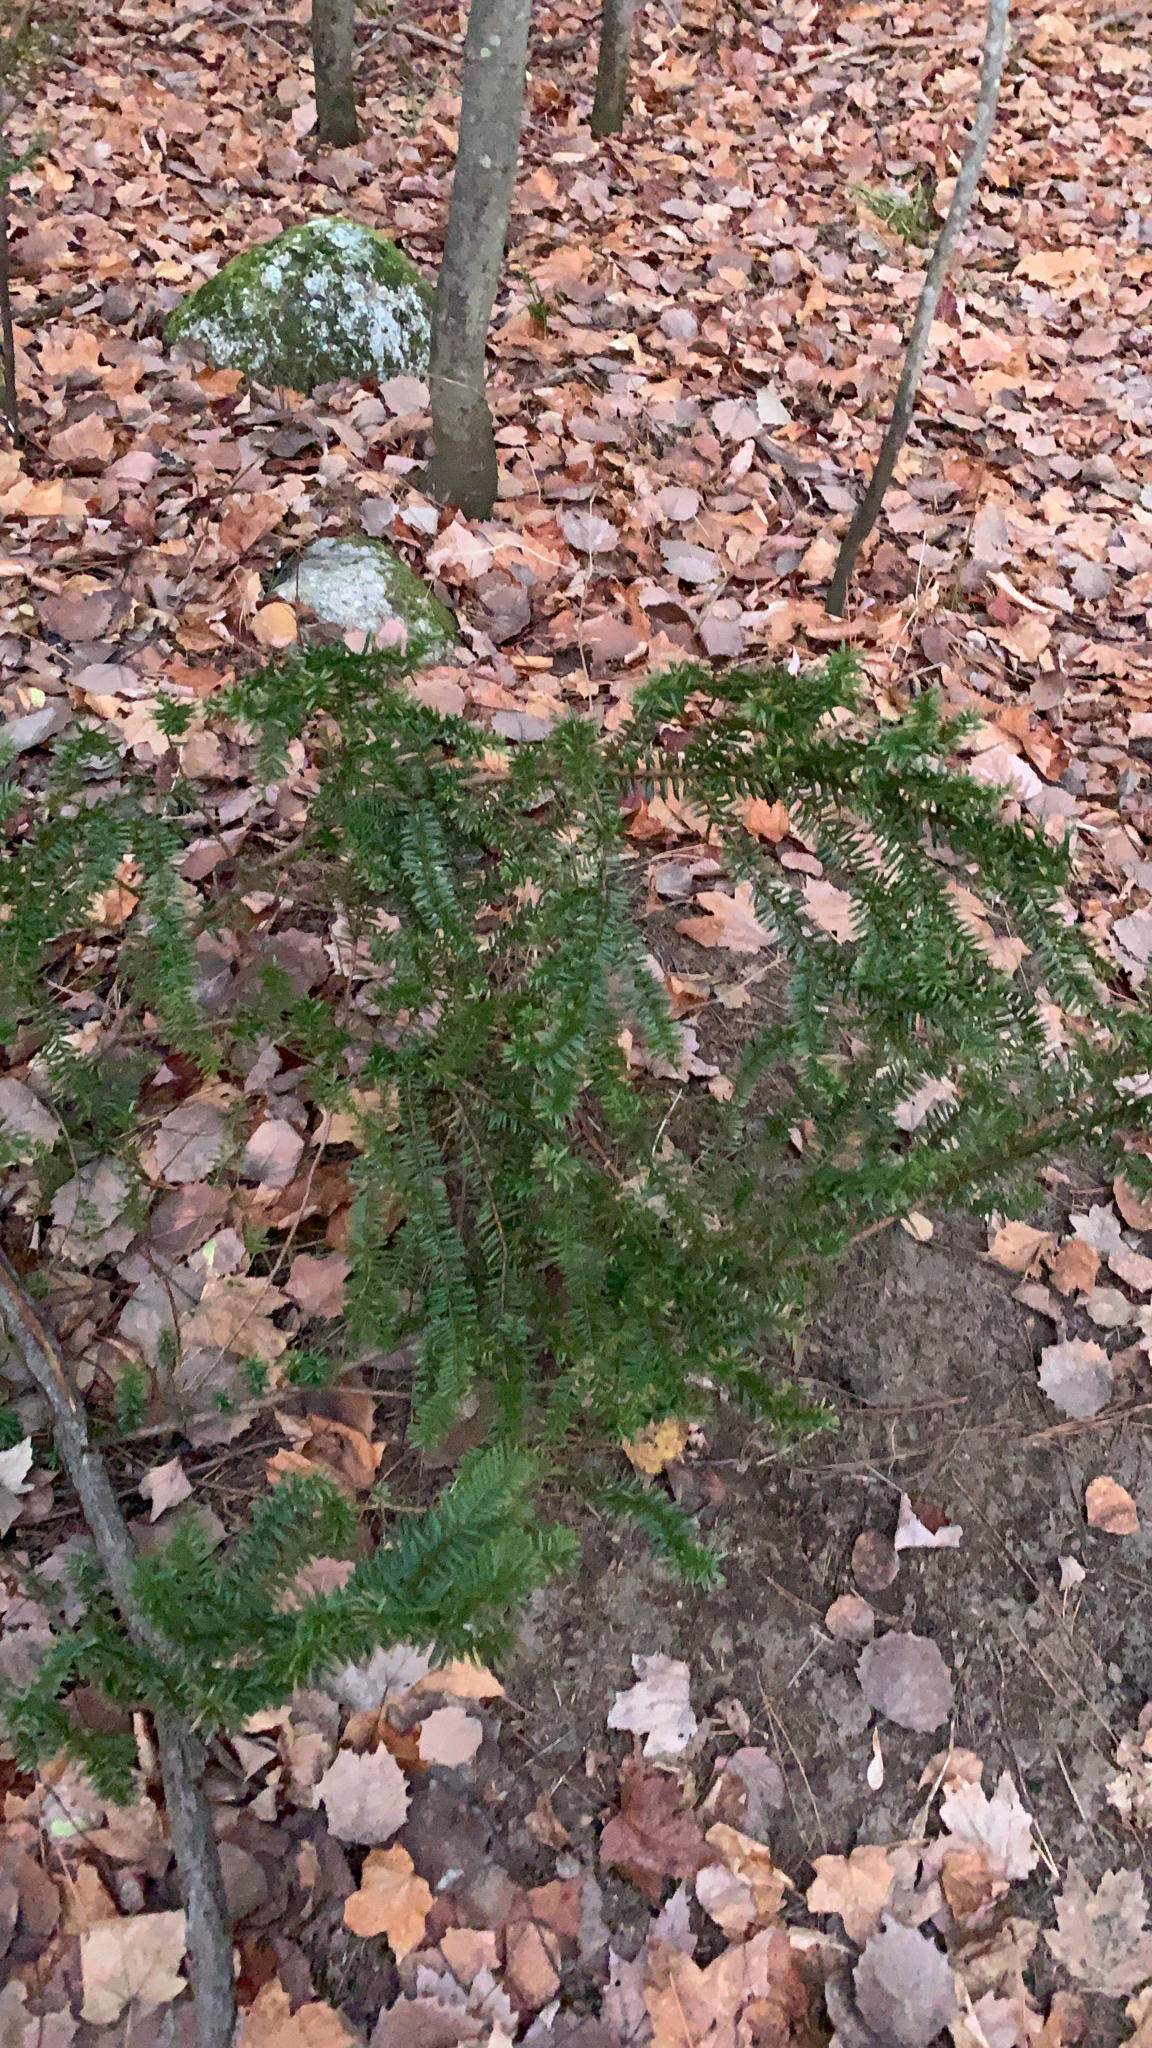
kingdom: Plantae
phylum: Tracheophyta
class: Pinopsida
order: Pinales
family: Taxaceae
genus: Taxus
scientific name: Taxus canadensis
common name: American yew
